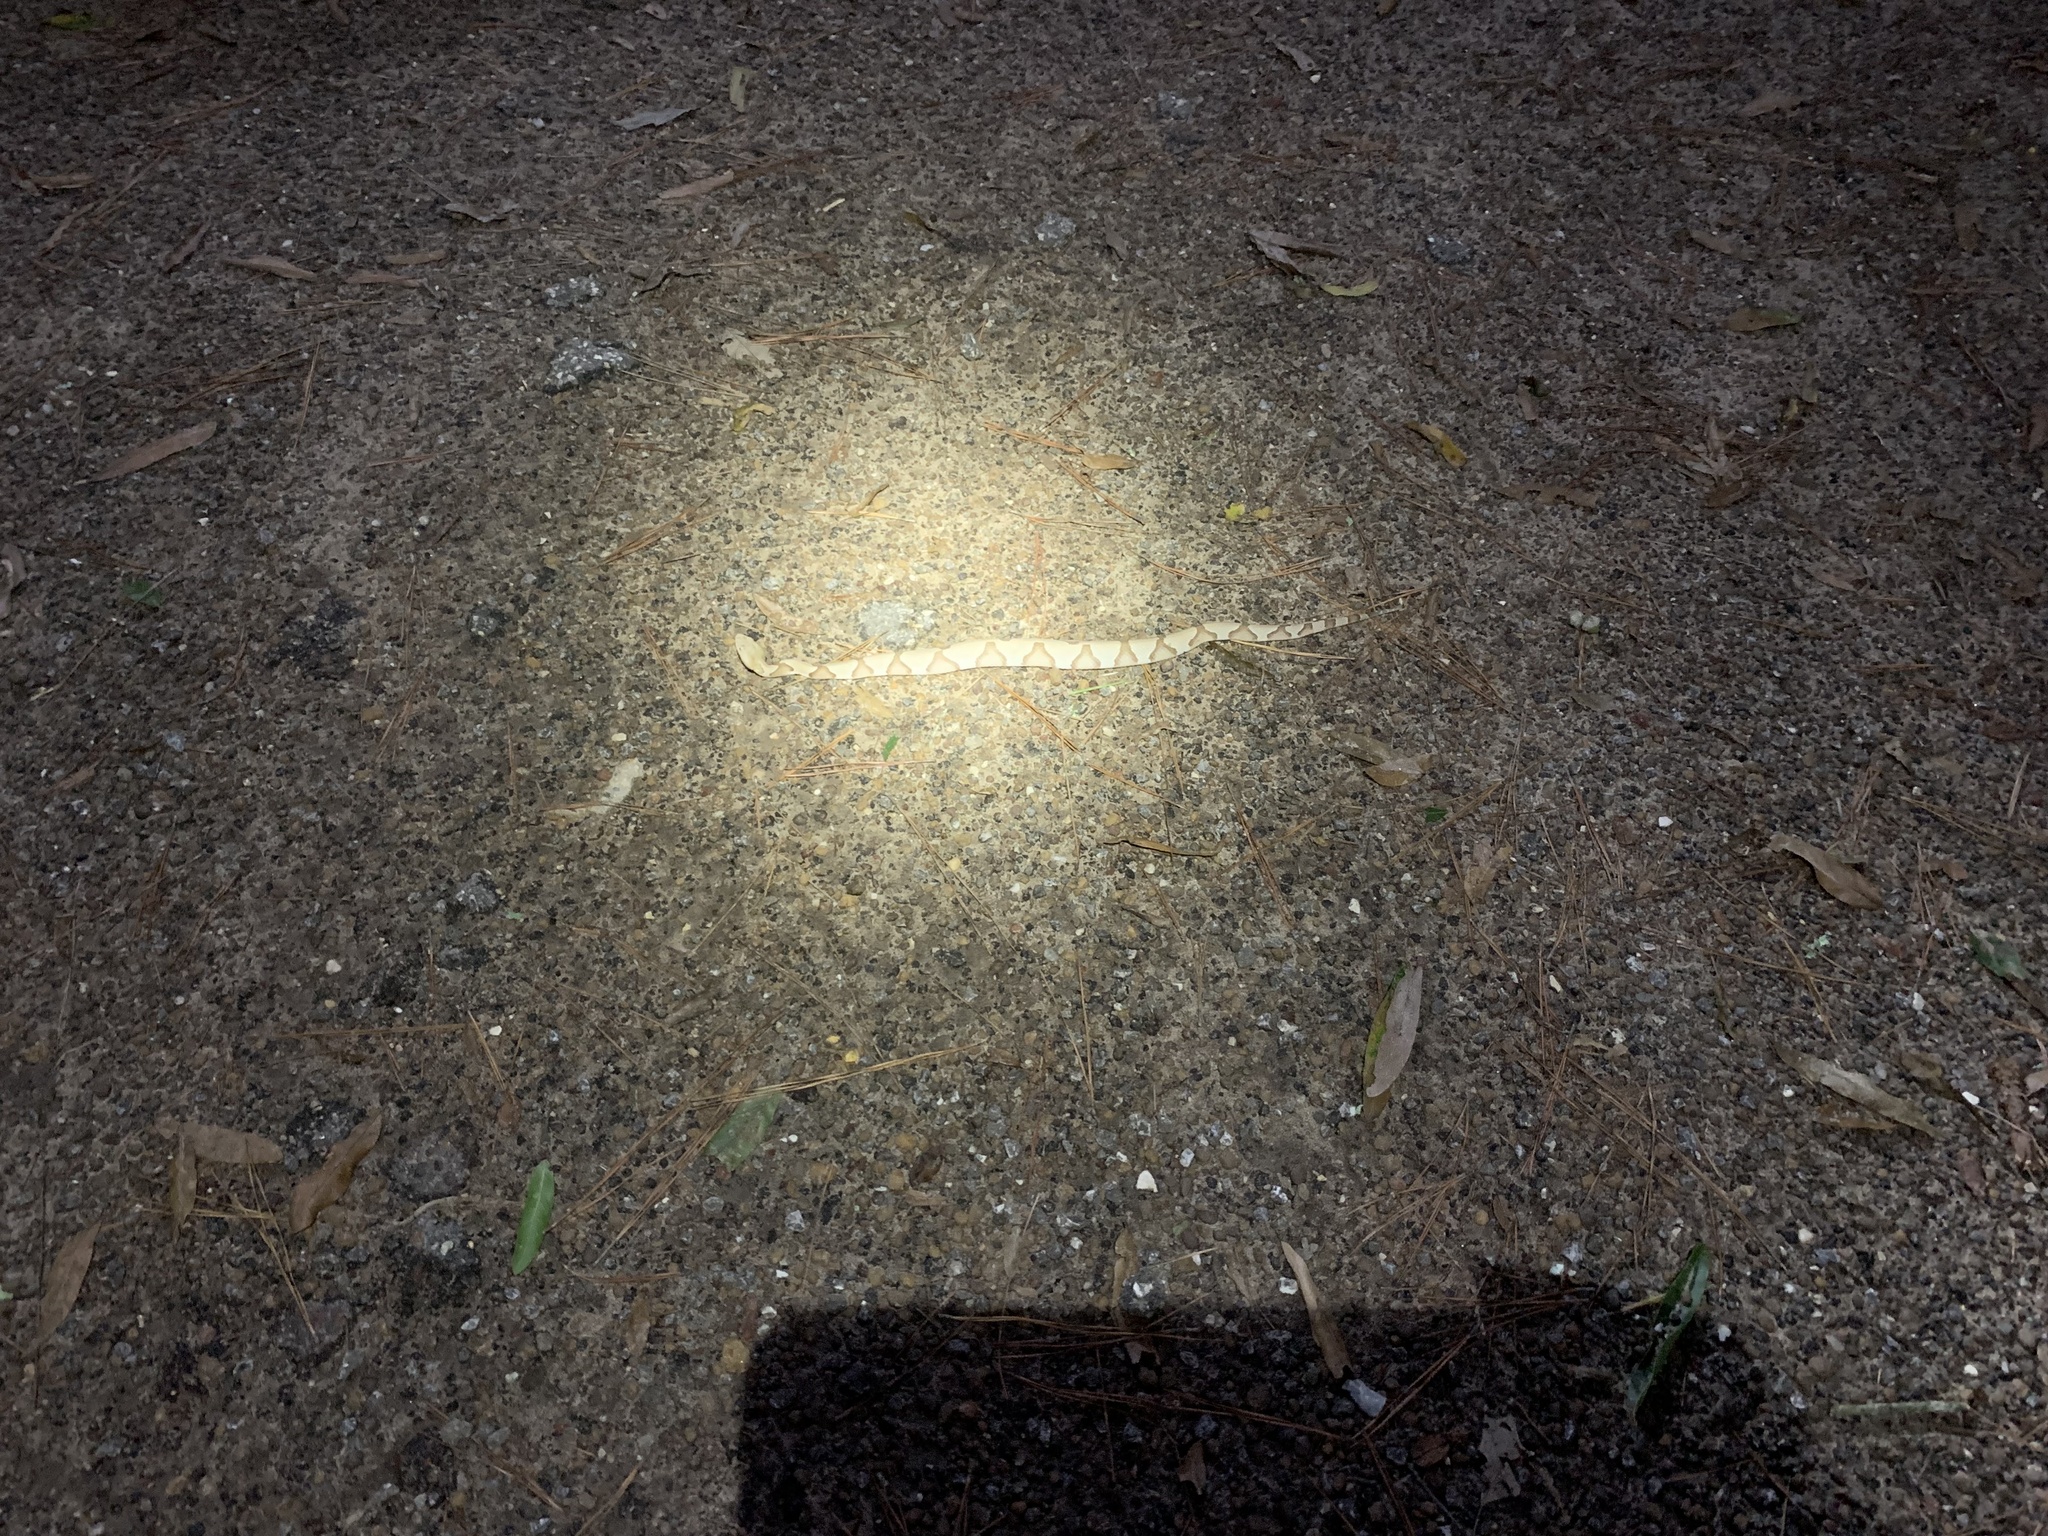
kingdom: Animalia
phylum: Chordata
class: Squamata
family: Viperidae
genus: Agkistrodon
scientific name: Agkistrodon contortrix
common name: Northern copperhead
